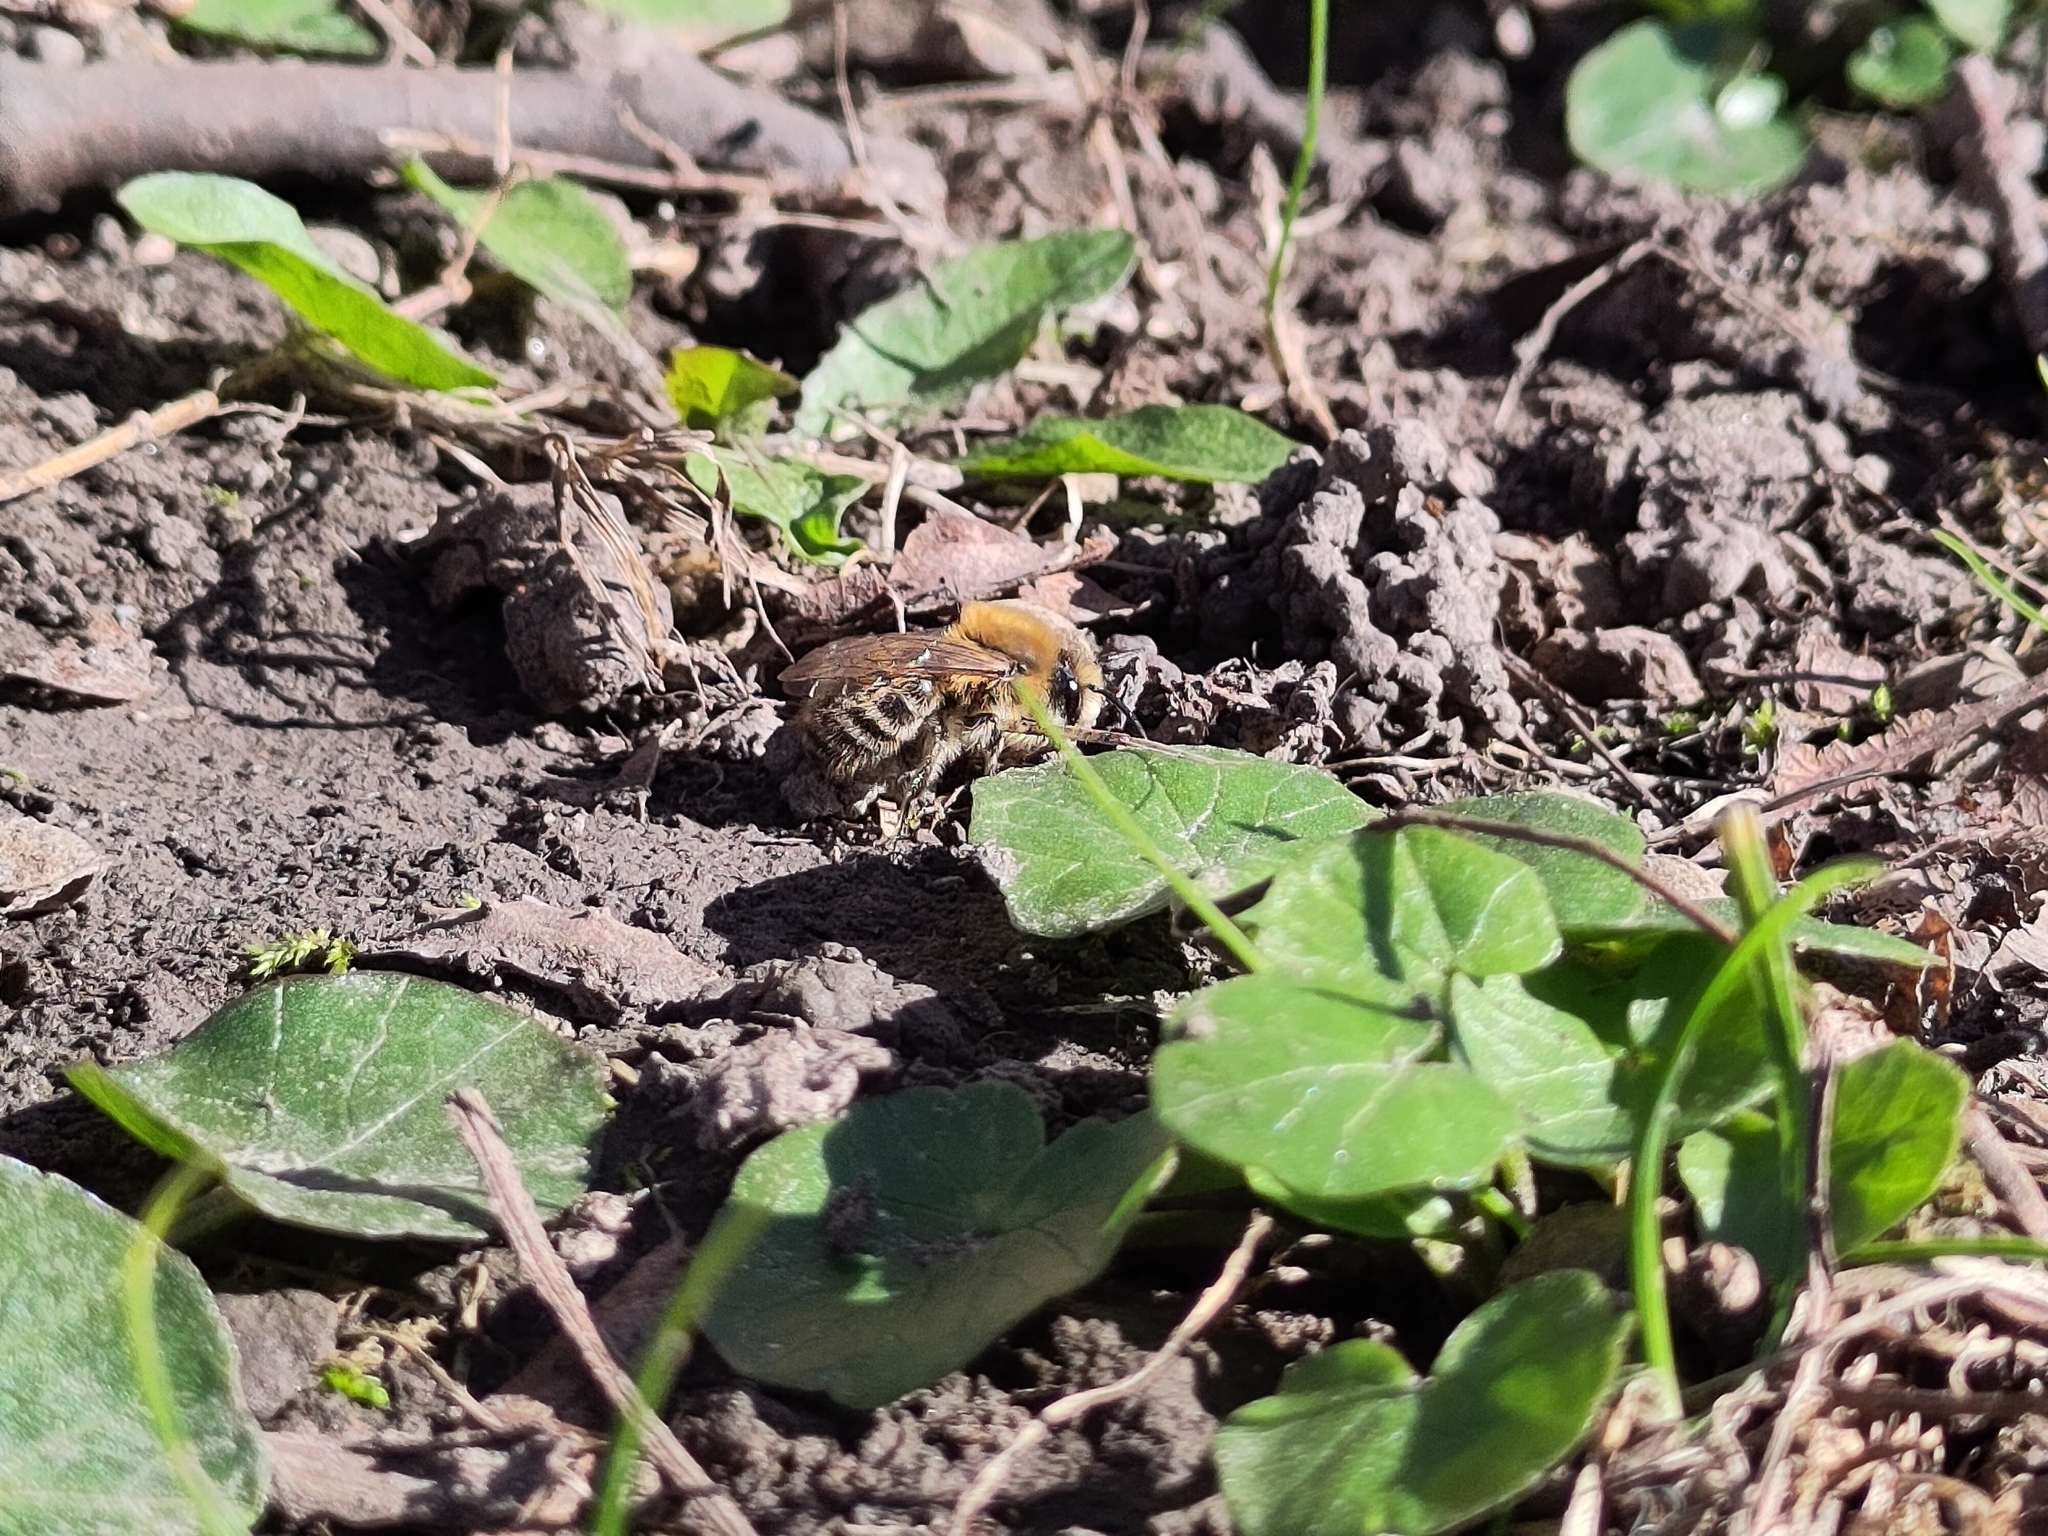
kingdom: Animalia
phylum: Arthropoda
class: Insecta
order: Hymenoptera
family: Colletidae
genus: Colletes
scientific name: Colletes cunicularius
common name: Early colletes
